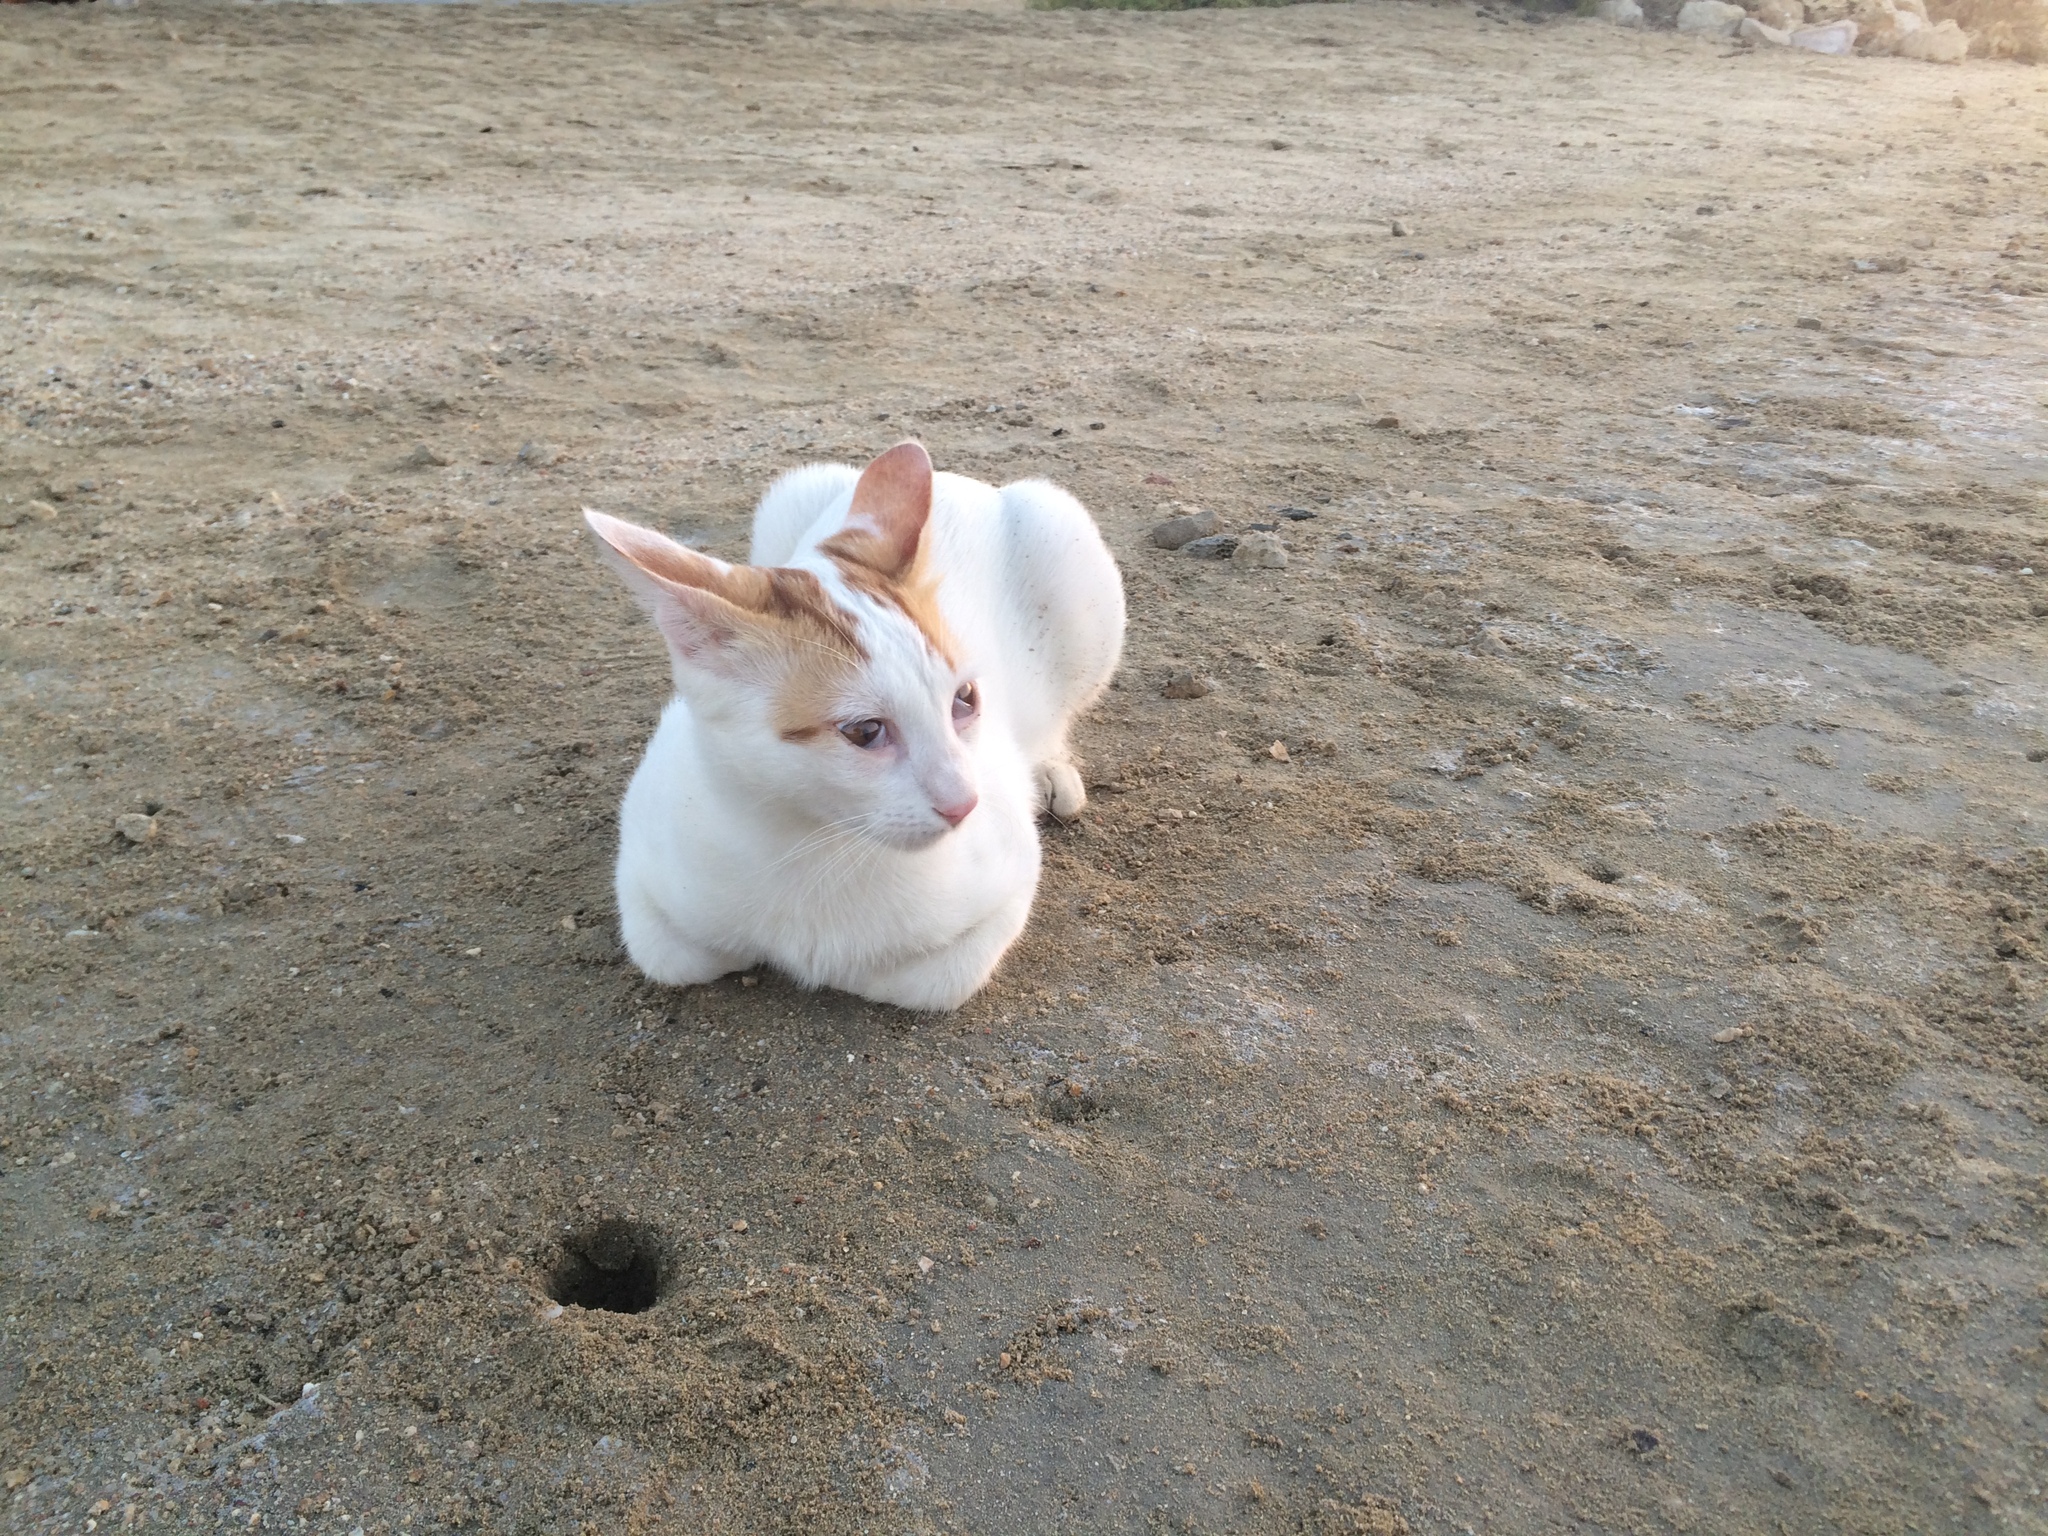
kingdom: Animalia
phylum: Chordata
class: Mammalia
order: Carnivora
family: Felidae
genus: Felis
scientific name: Felis catus
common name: Domestic cat
